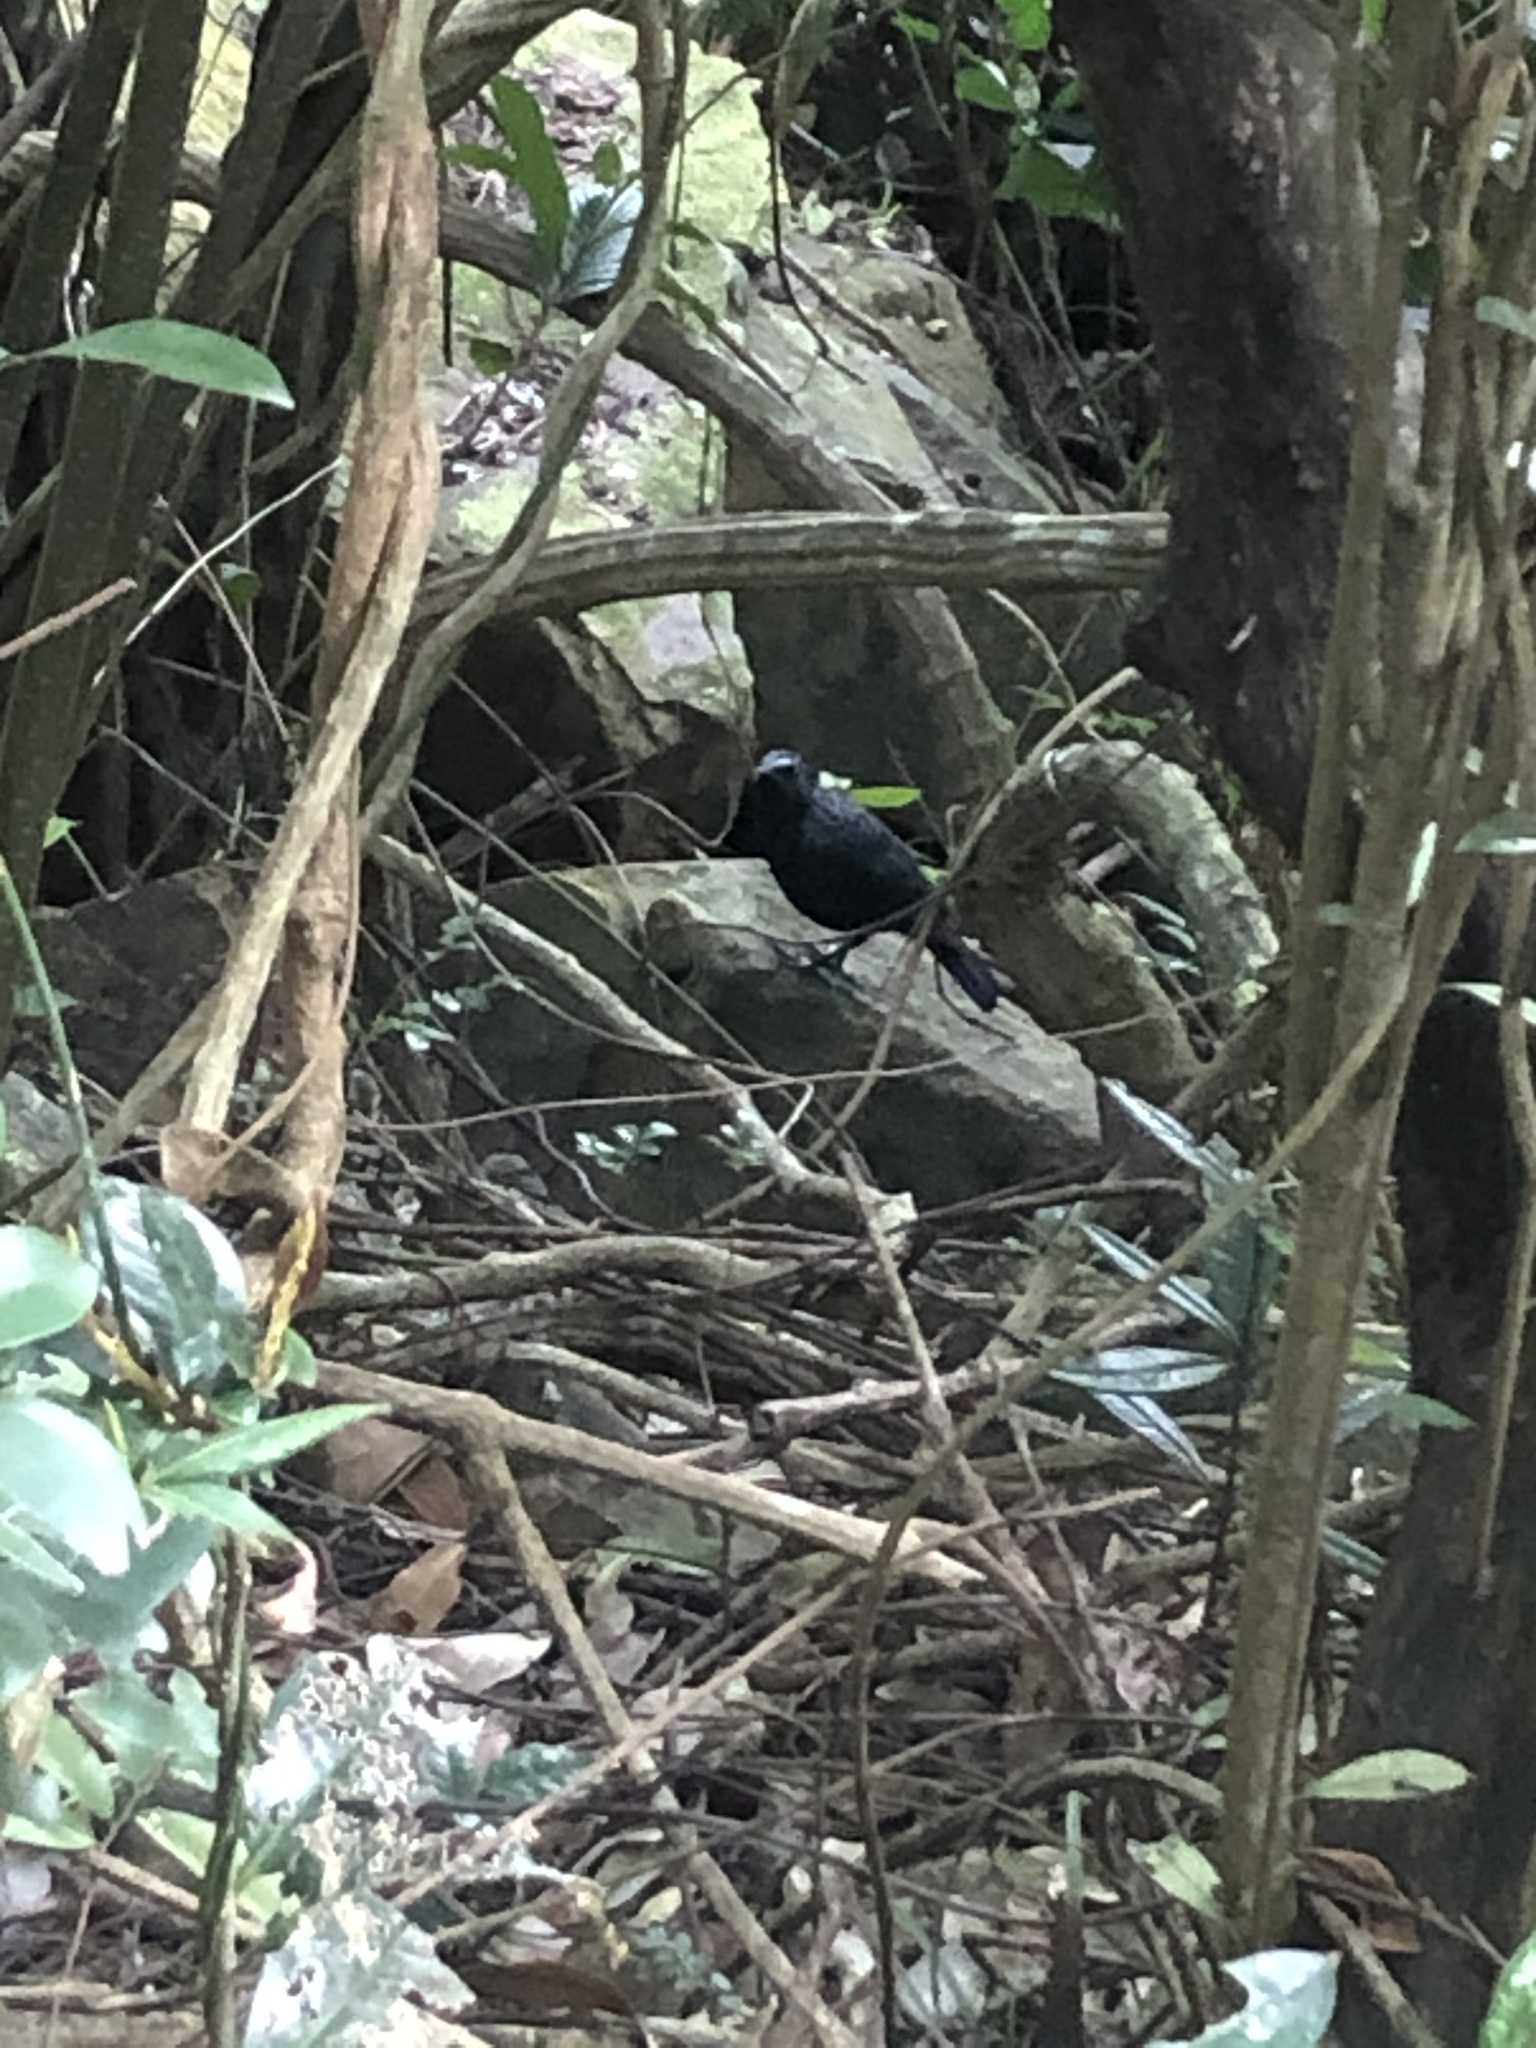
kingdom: Animalia
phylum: Chordata
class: Aves
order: Passeriformes
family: Muscicapidae
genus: Myophonus
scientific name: Myophonus caeruleus
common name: Blue whistling-thrush
